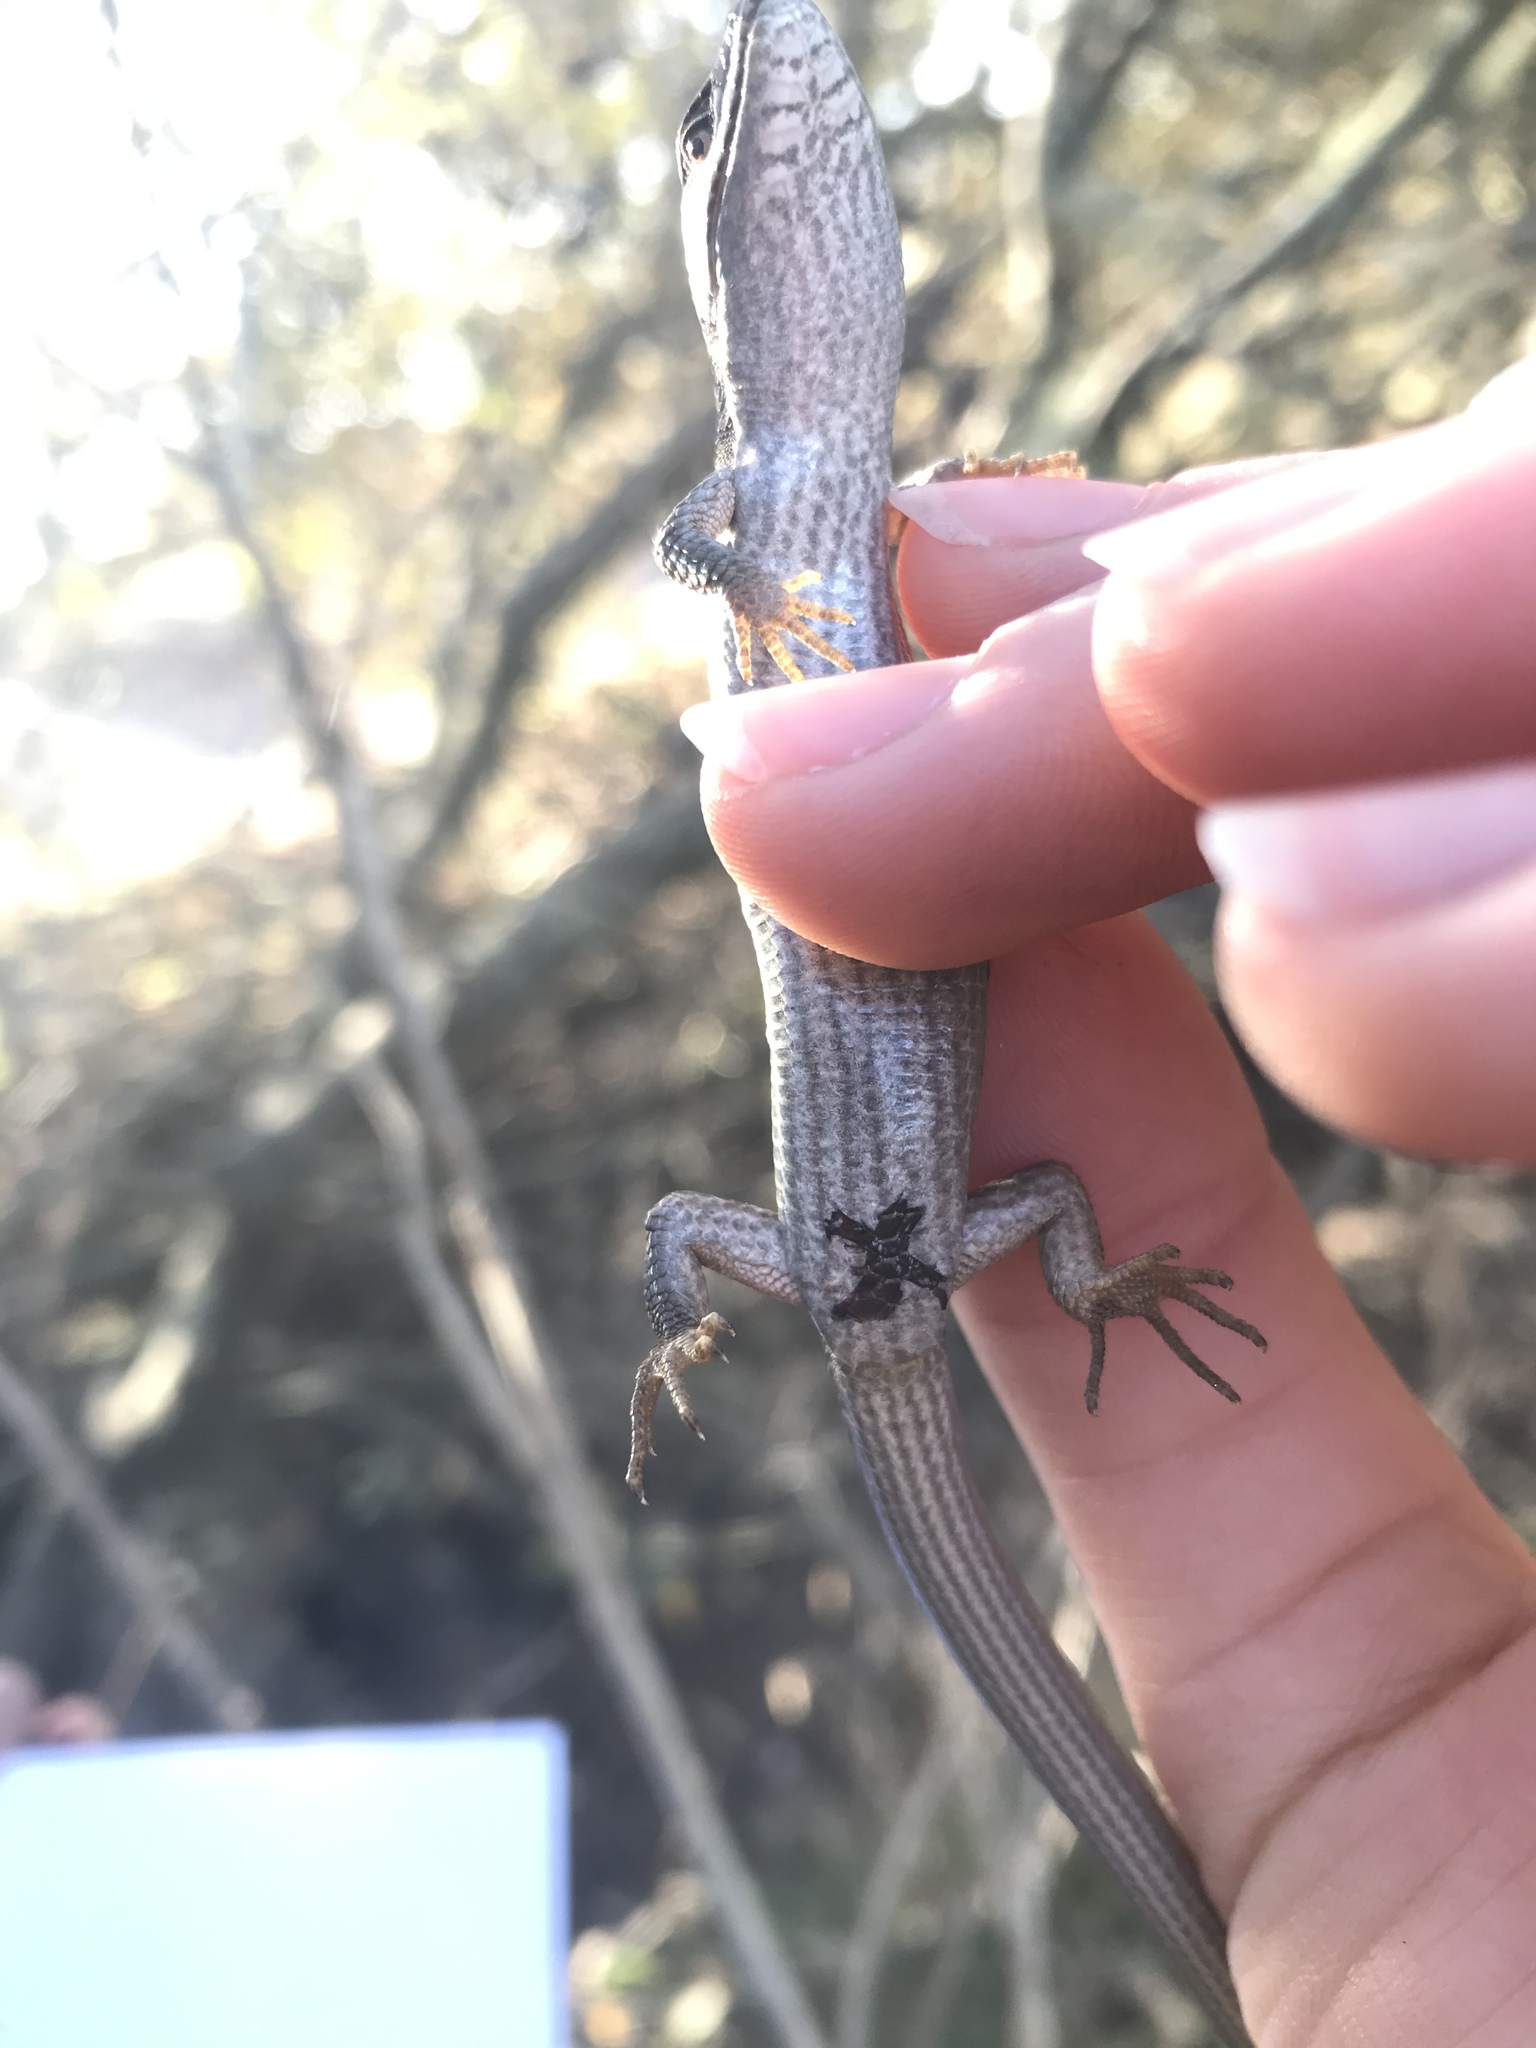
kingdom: Animalia
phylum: Chordata
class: Squamata
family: Anguidae
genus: Elgaria
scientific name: Elgaria multicarinata
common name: Southern alligator lizard
